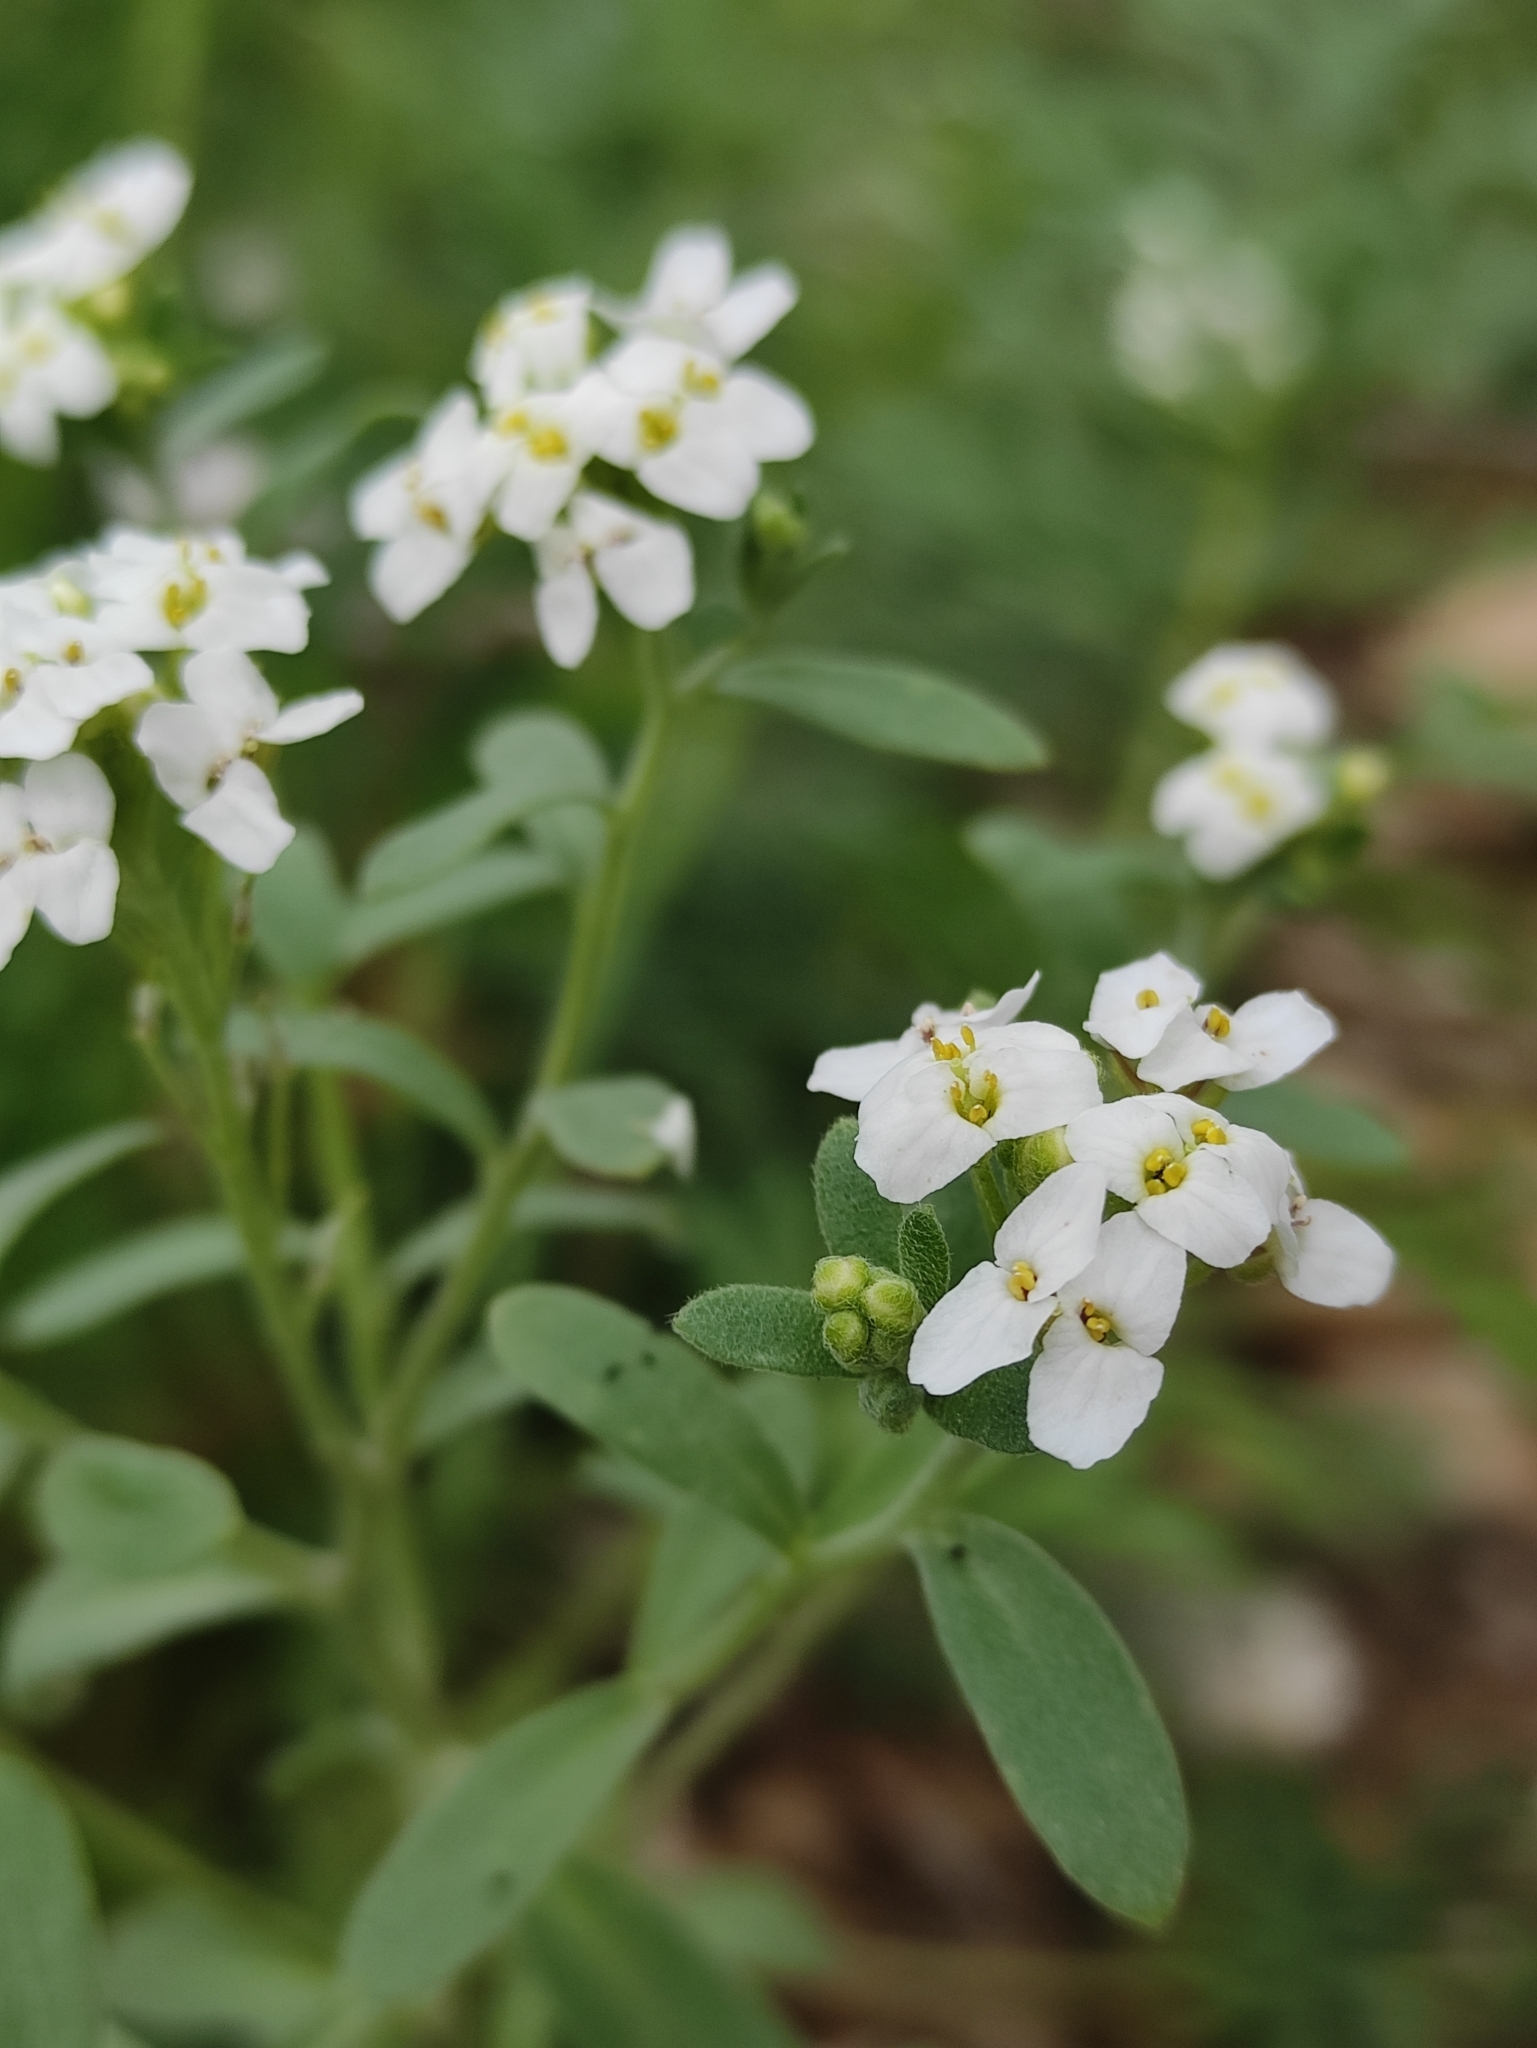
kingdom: Plantae
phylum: Tracheophyta
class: Magnoliopsida
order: Brassicales
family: Brassicaceae
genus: Berteroa
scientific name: Berteroa incana
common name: Hoary alison
